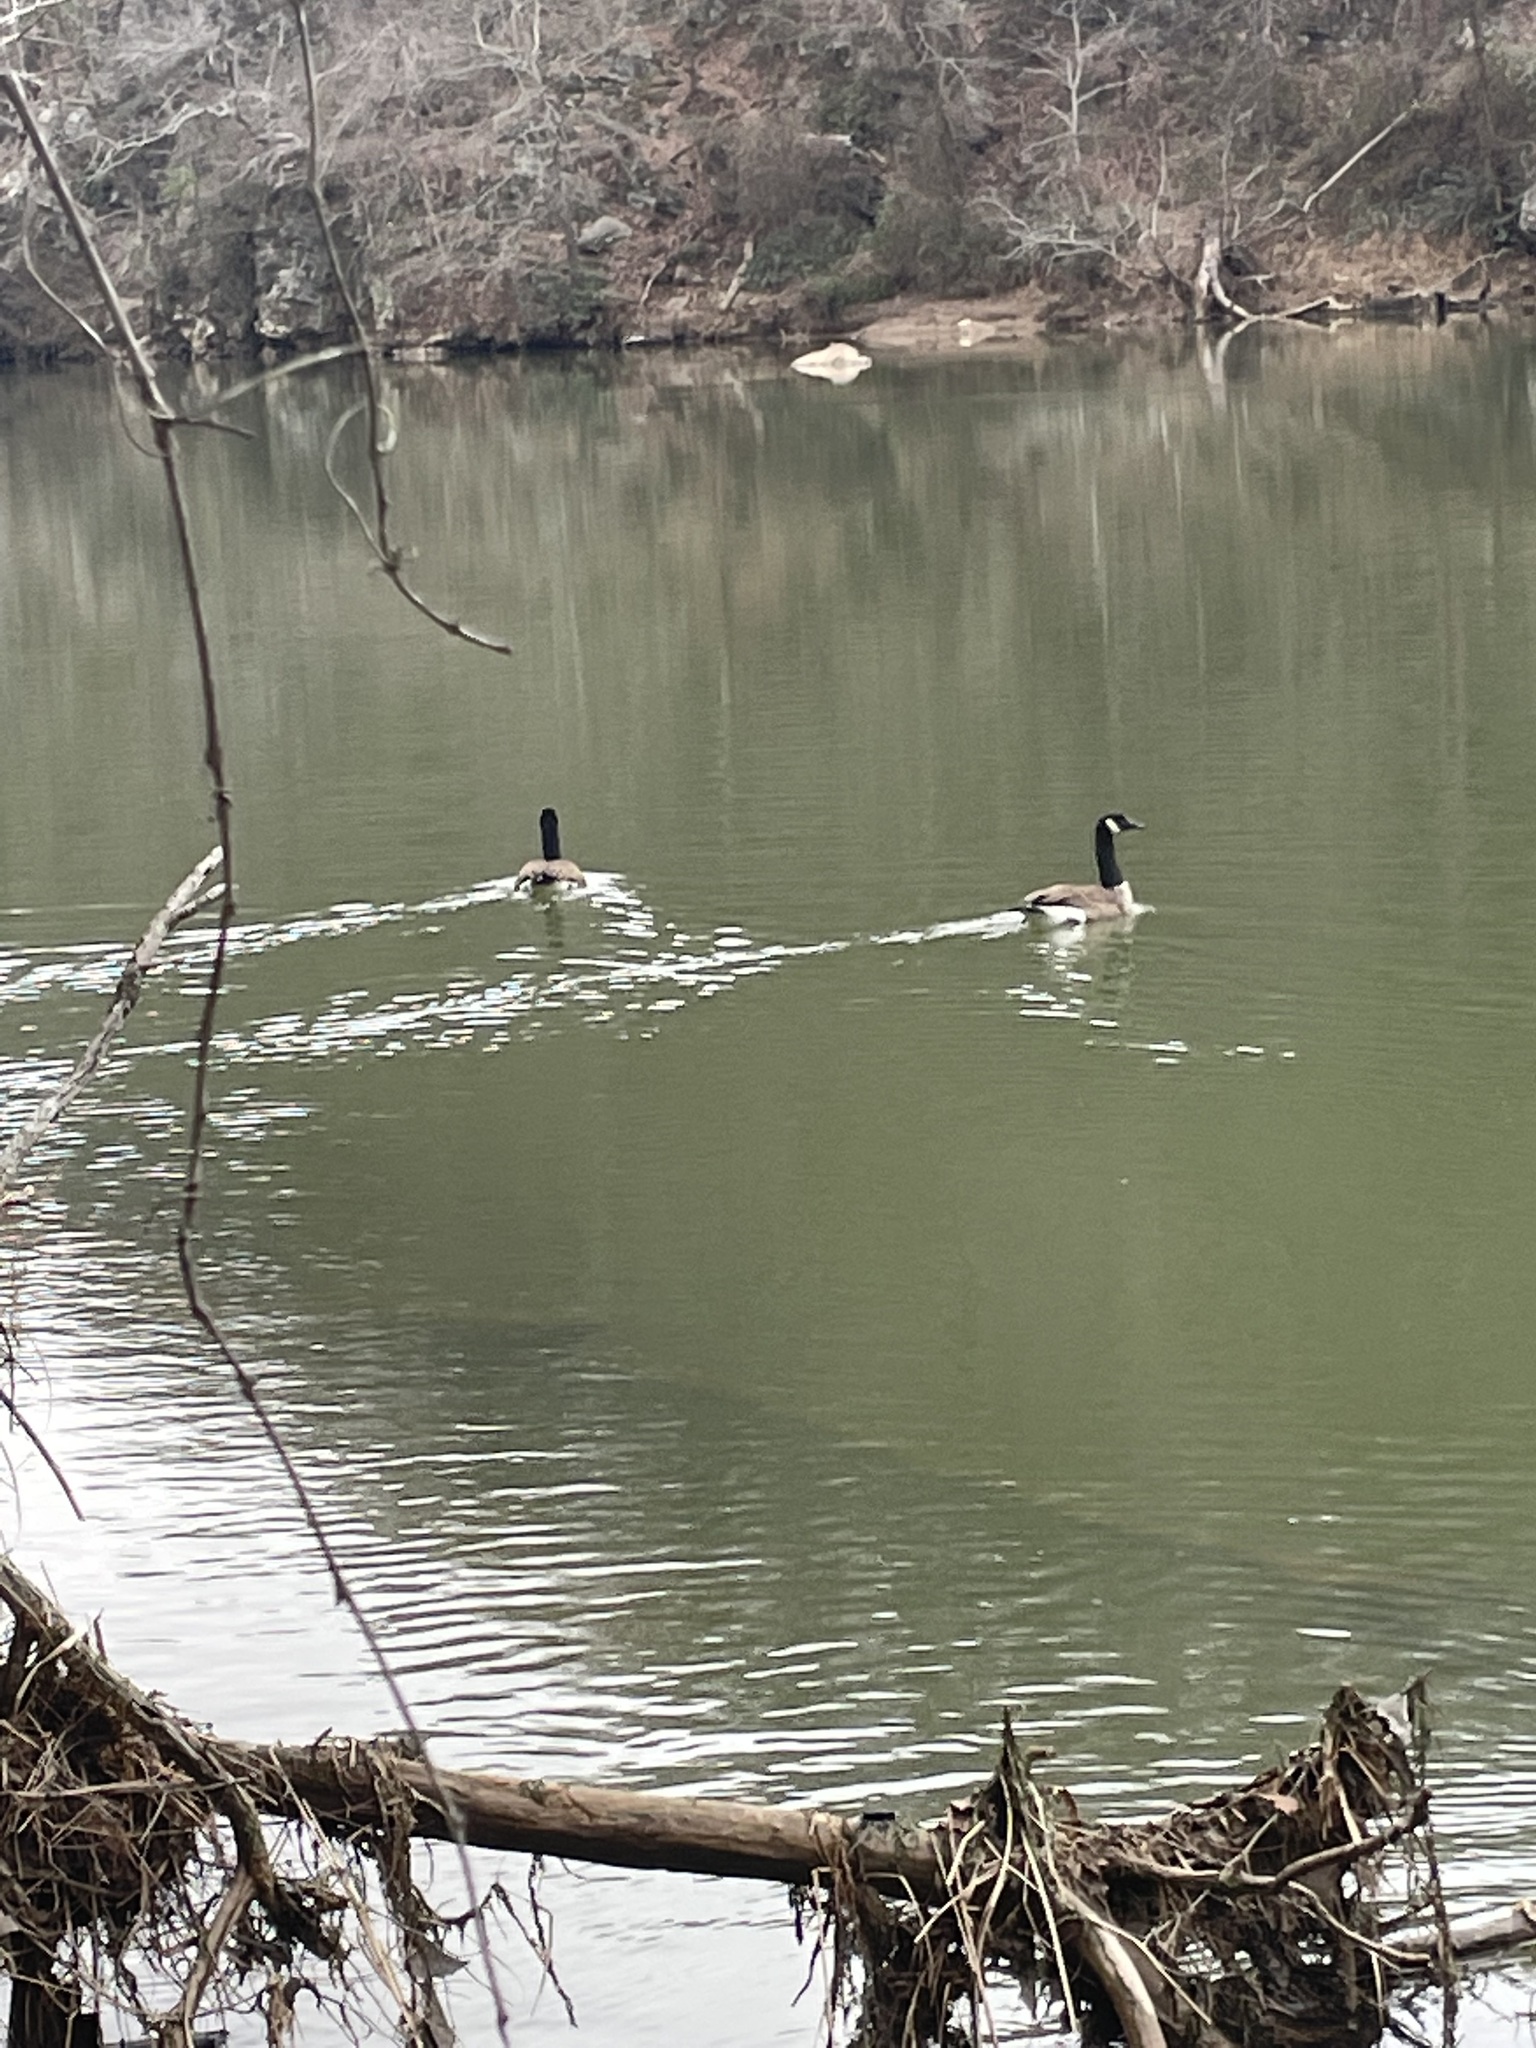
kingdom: Animalia
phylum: Chordata
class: Aves
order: Anseriformes
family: Anatidae
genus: Branta
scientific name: Branta canadensis
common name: Canada goose
